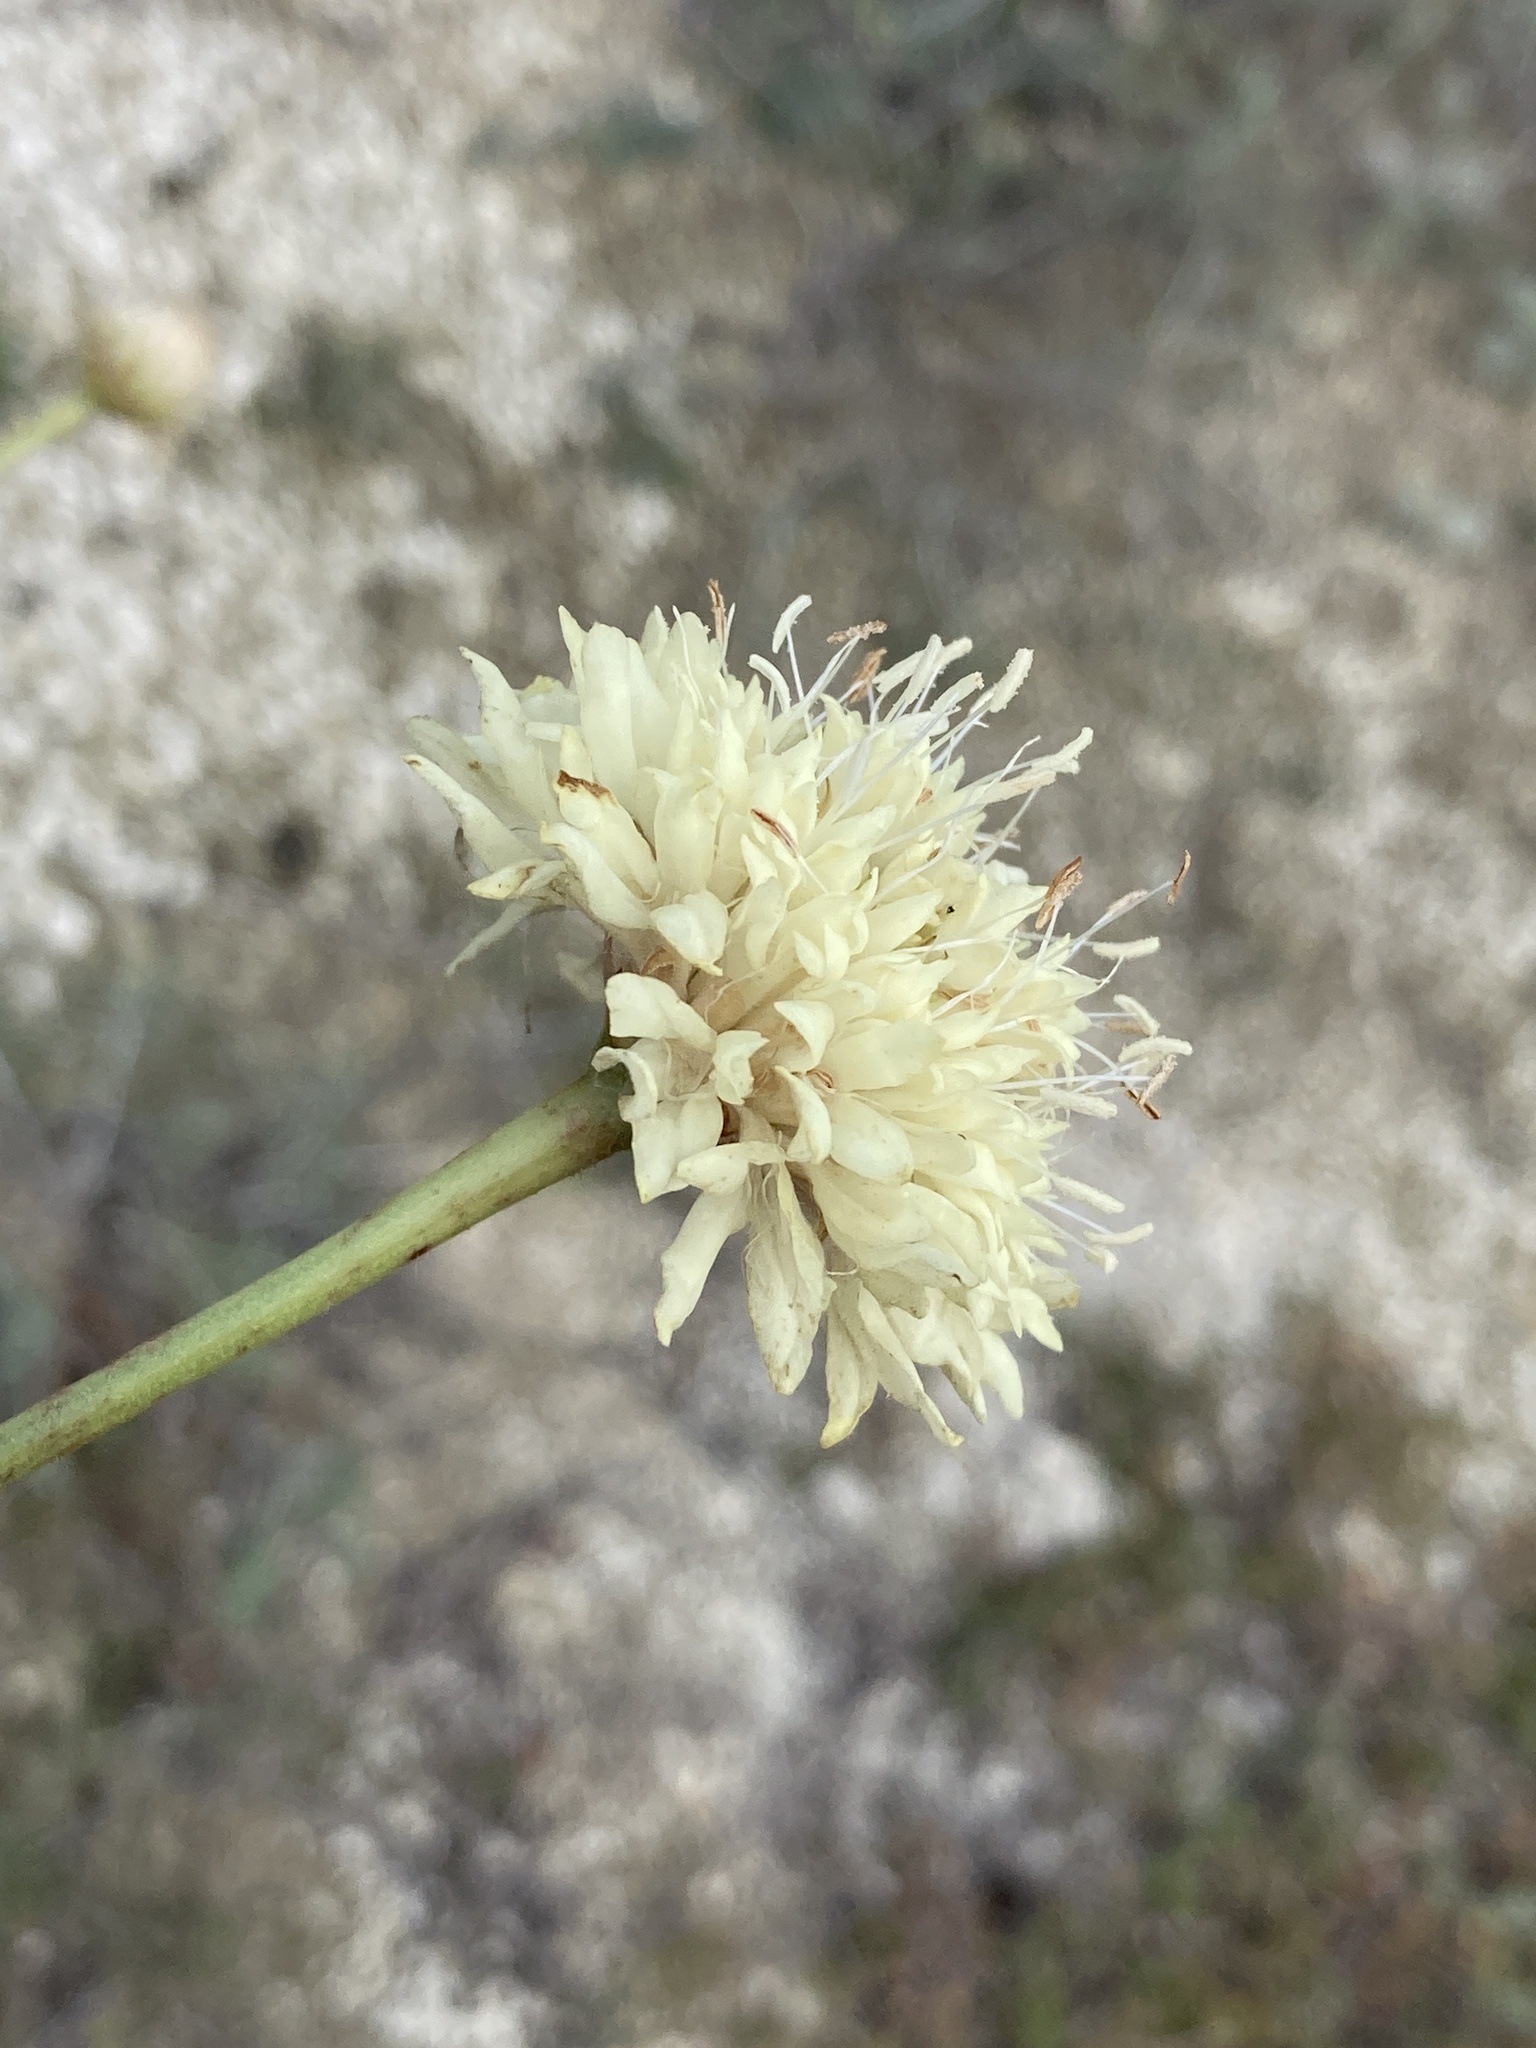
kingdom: Plantae
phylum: Tracheophyta
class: Magnoliopsida
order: Dipsacales
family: Caprifoliaceae
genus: Cephalaria
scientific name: Cephalaria uralensis
